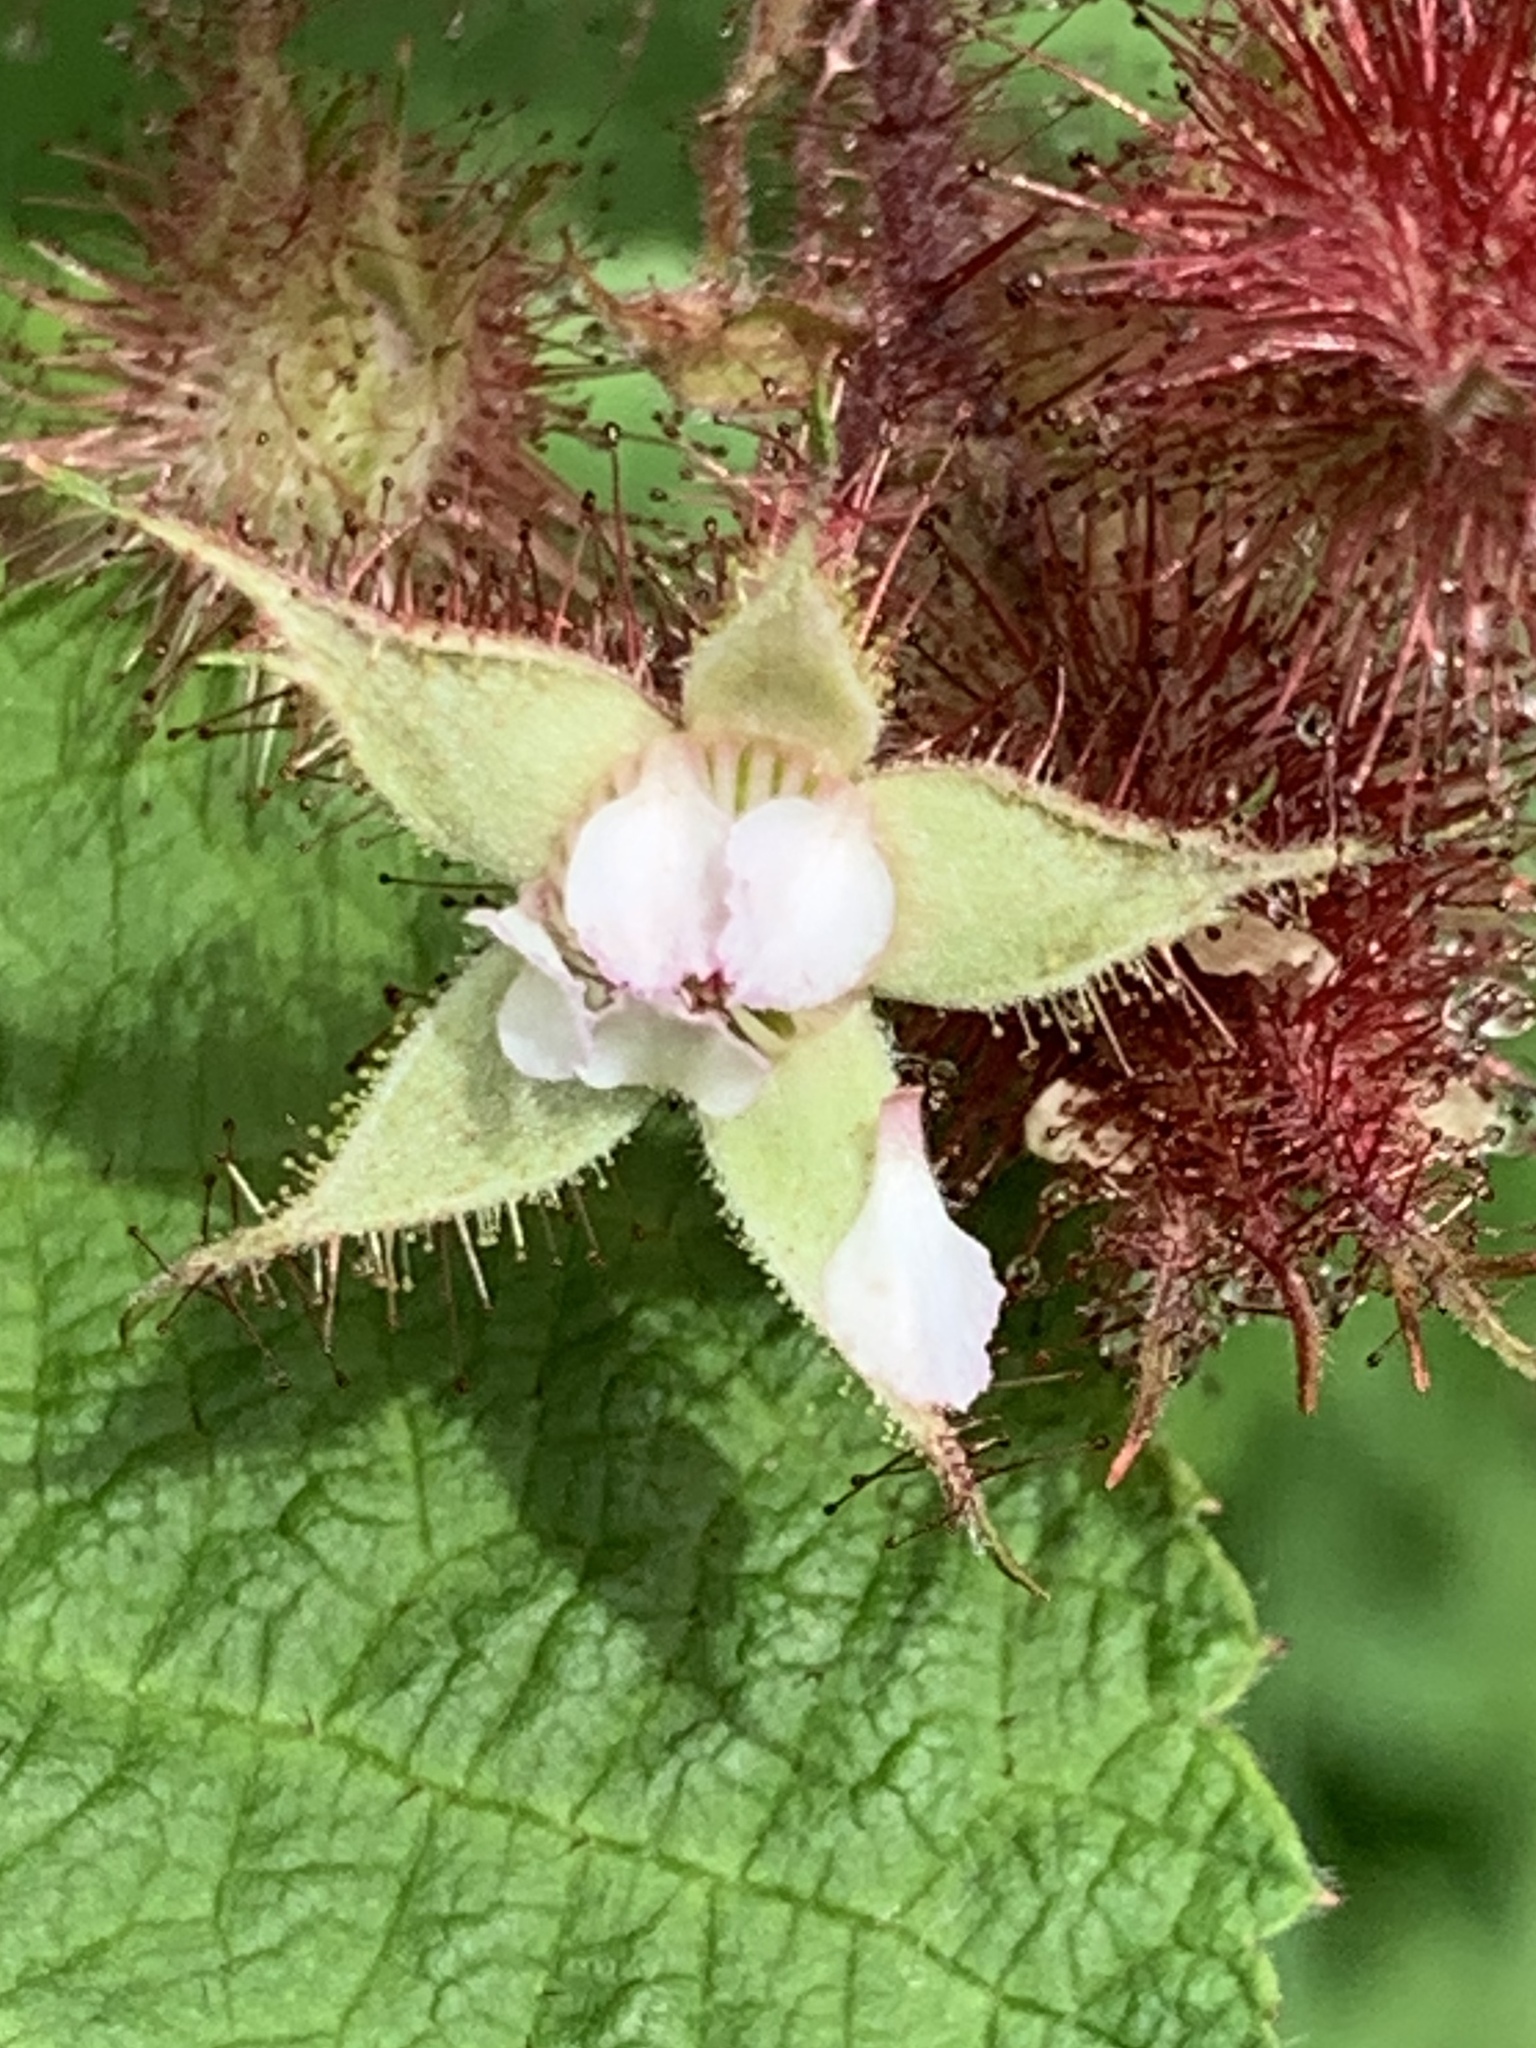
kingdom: Plantae
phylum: Tracheophyta
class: Magnoliopsida
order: Rosales
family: Rosaceae
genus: Rubus
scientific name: Rubus phoenicolasius
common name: Japanese wineberry
